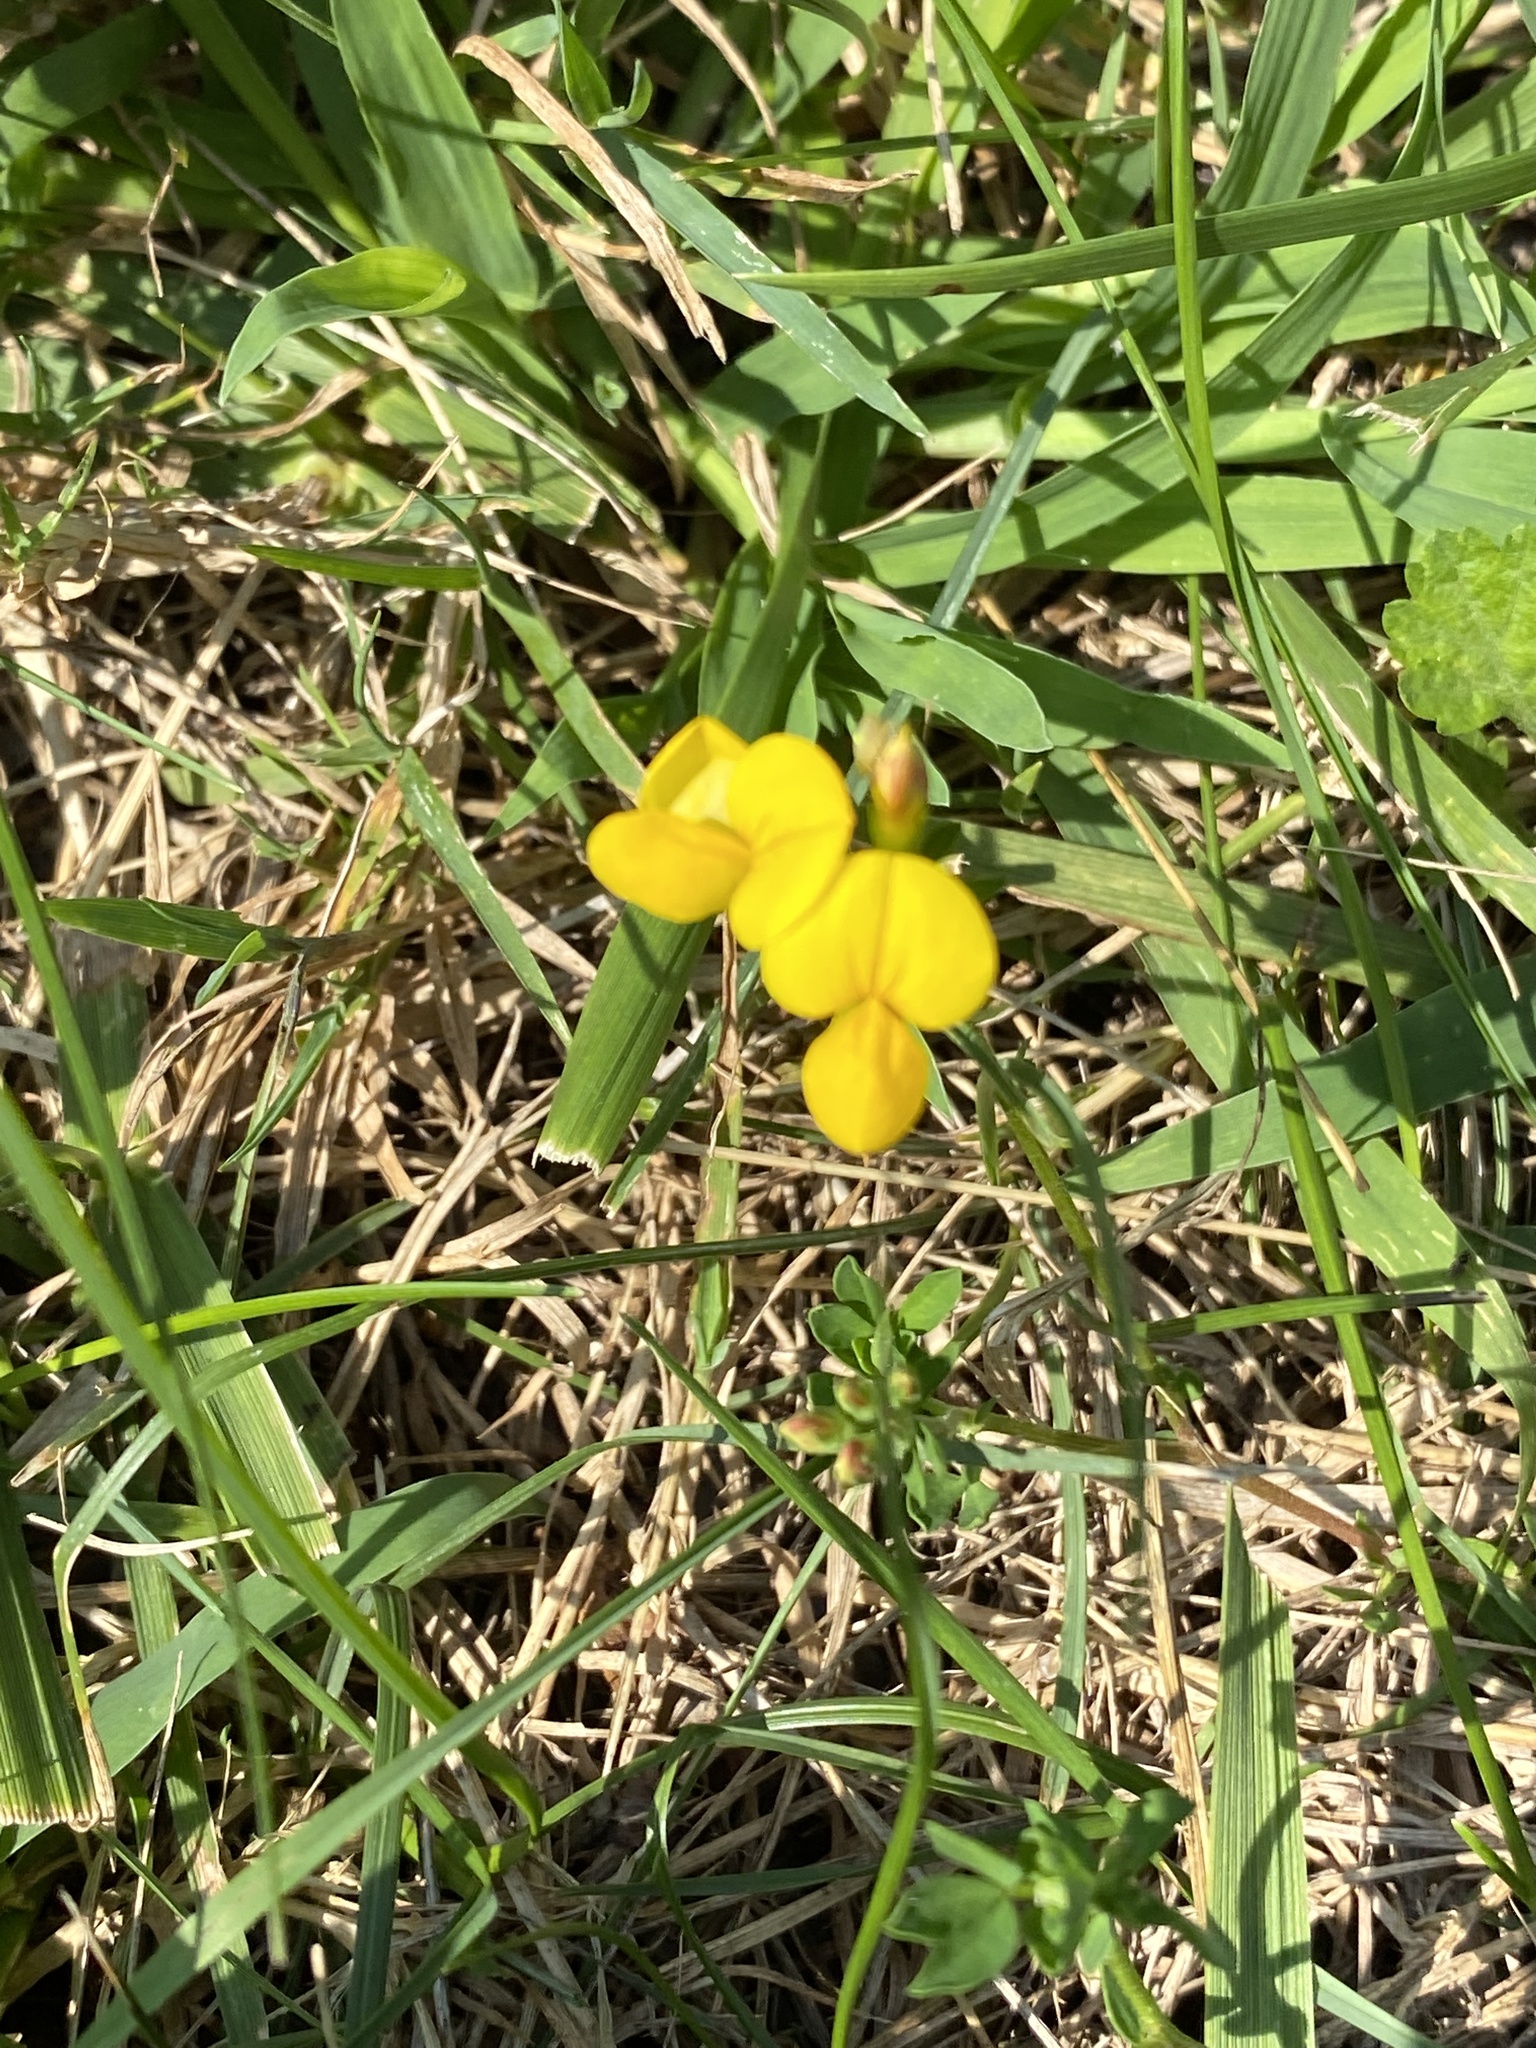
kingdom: Plantae
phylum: Tracheophyta
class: Magnoliopsida
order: Fabales
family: Fabaceae
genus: Lotus
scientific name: Lotus corniculatus
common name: Common bird's-foot-trefoil
